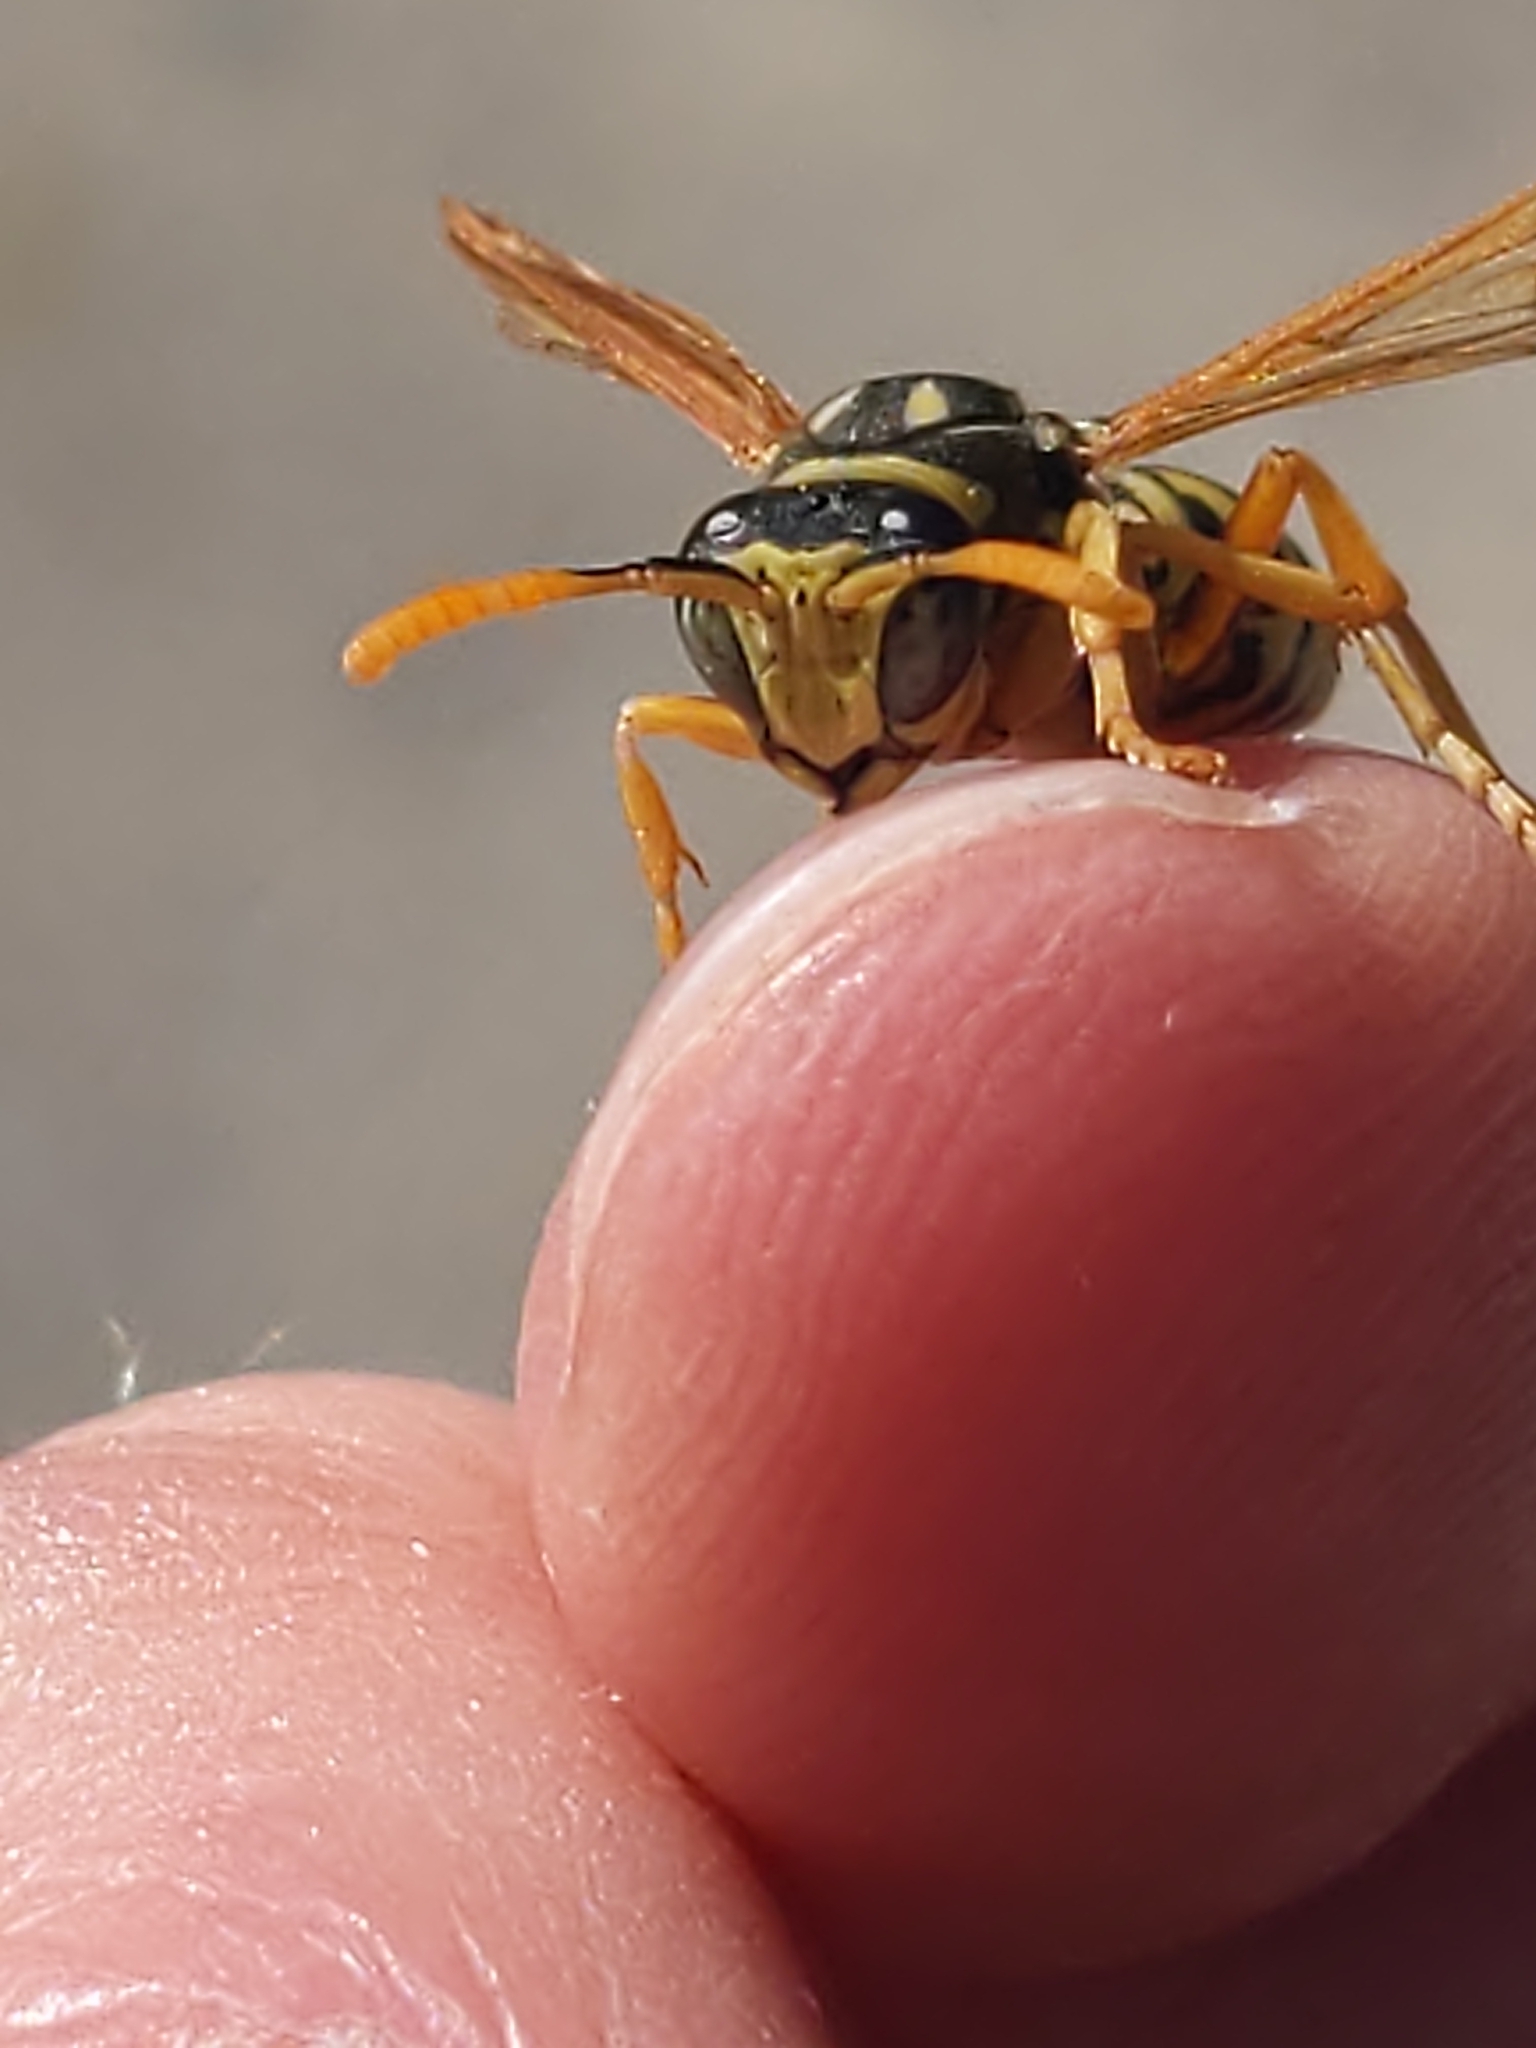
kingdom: Animalia
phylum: Arthropoda
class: Insecta
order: Hymenoptera
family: Eumenidae
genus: Polistes
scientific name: Polistes dominula
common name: Paper wasp
